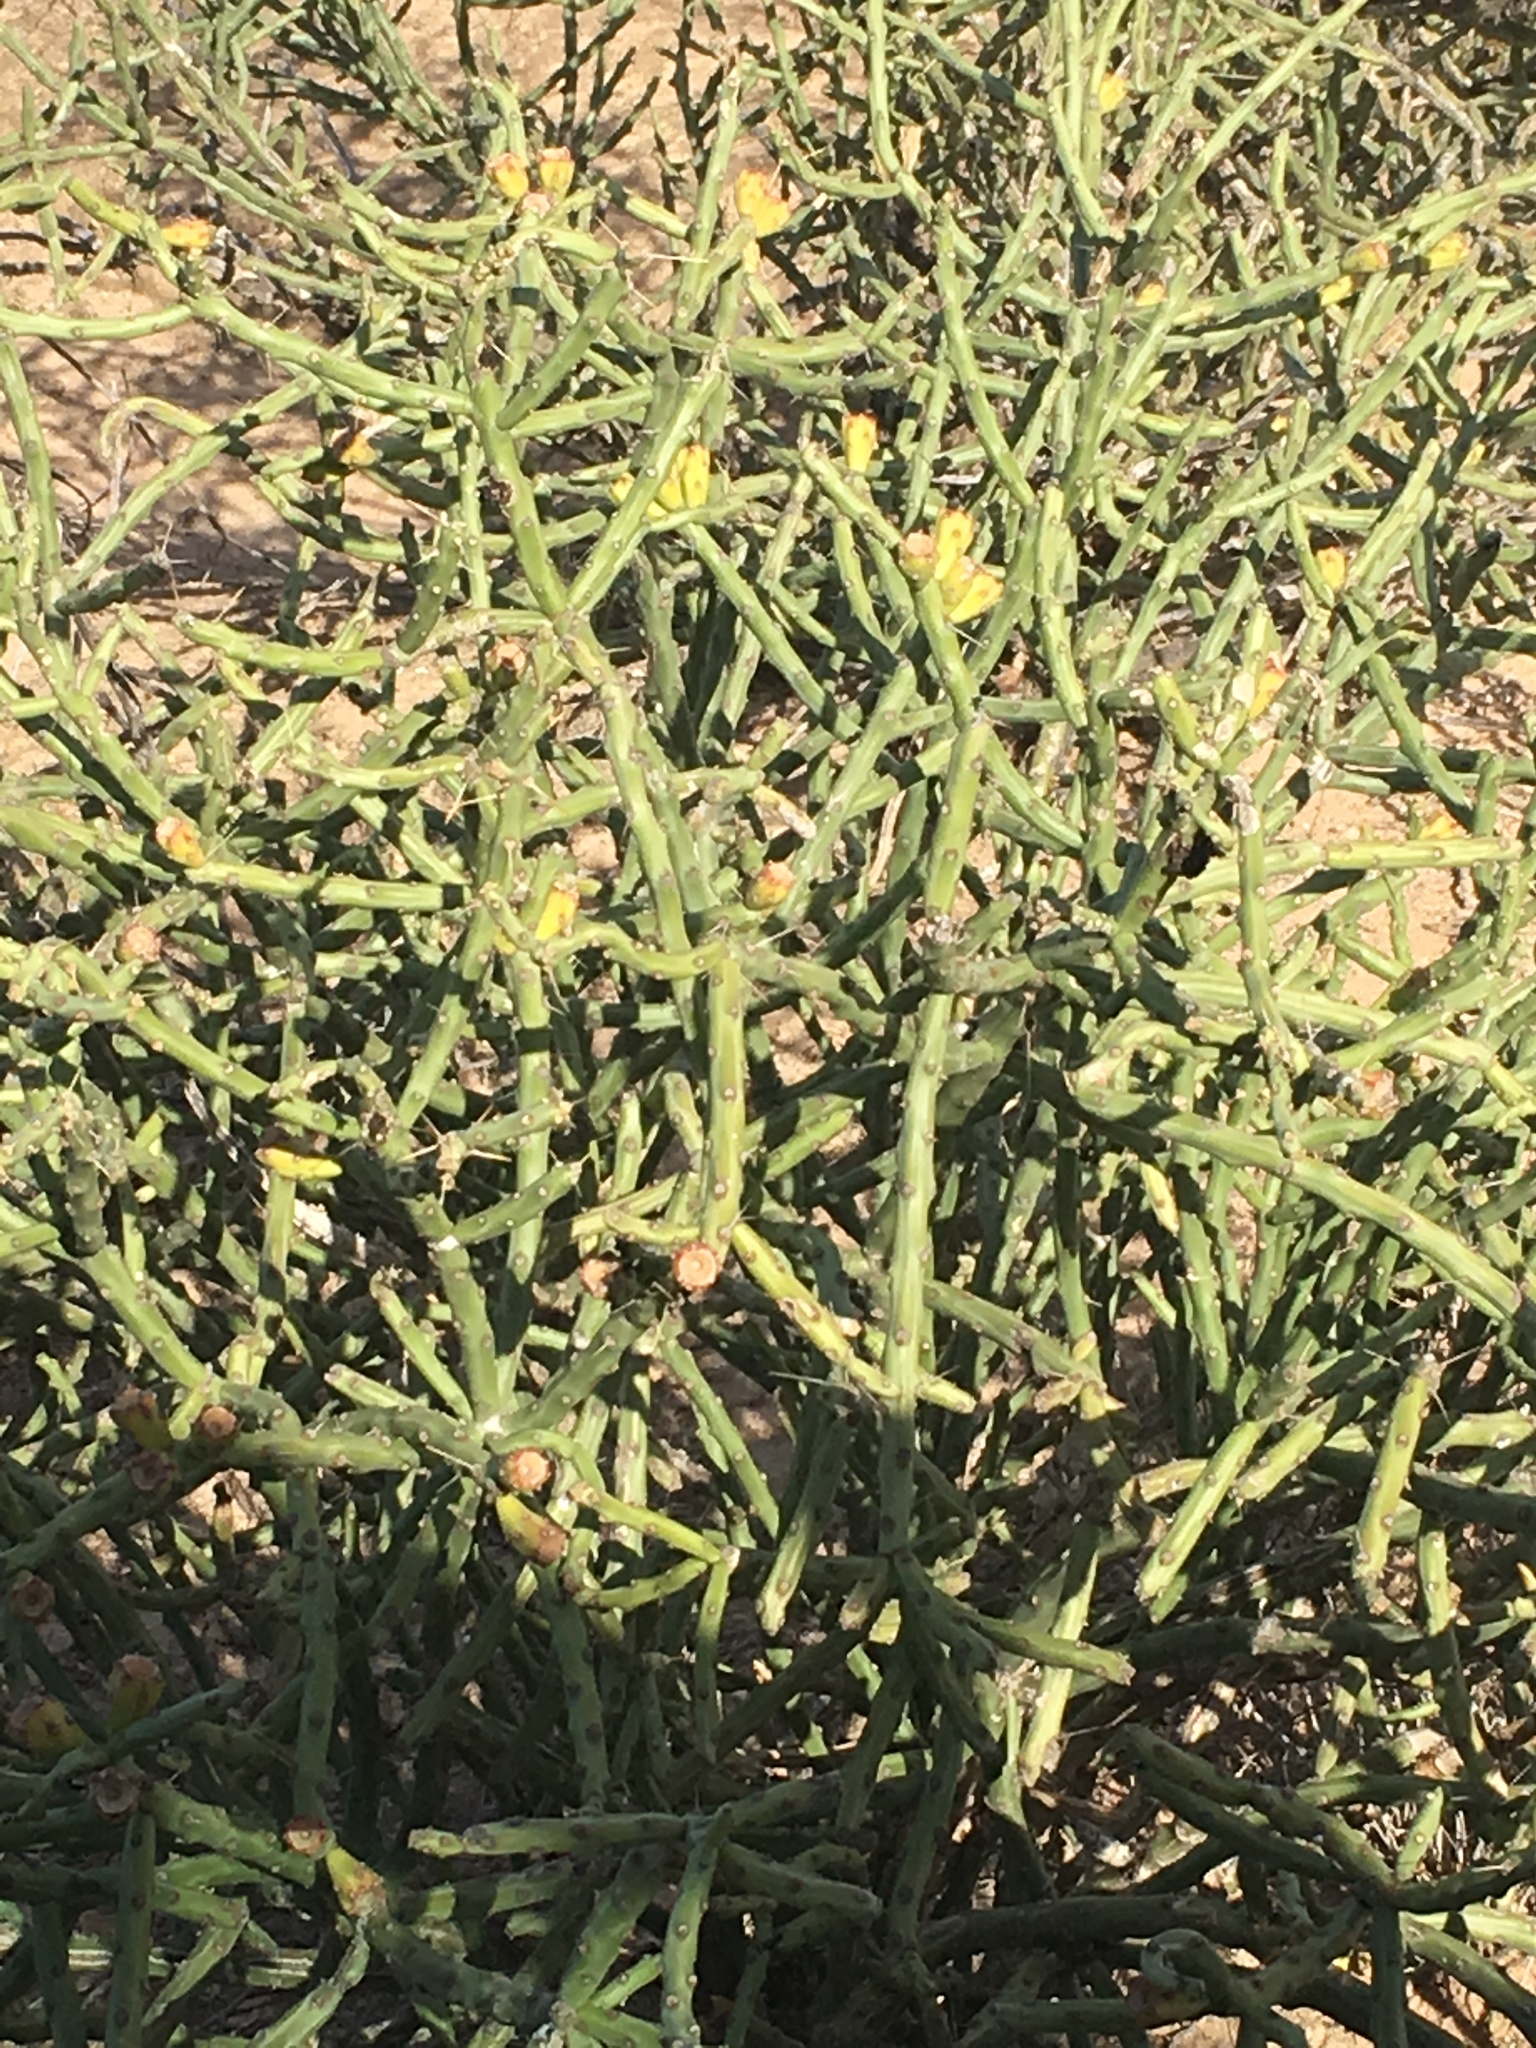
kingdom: Plantae
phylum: Tracheophyta
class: Magnoliopsida
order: Caryophyllales
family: Cactaceae
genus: Cylindropuntia
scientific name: Cylindropuntia arbuscula
